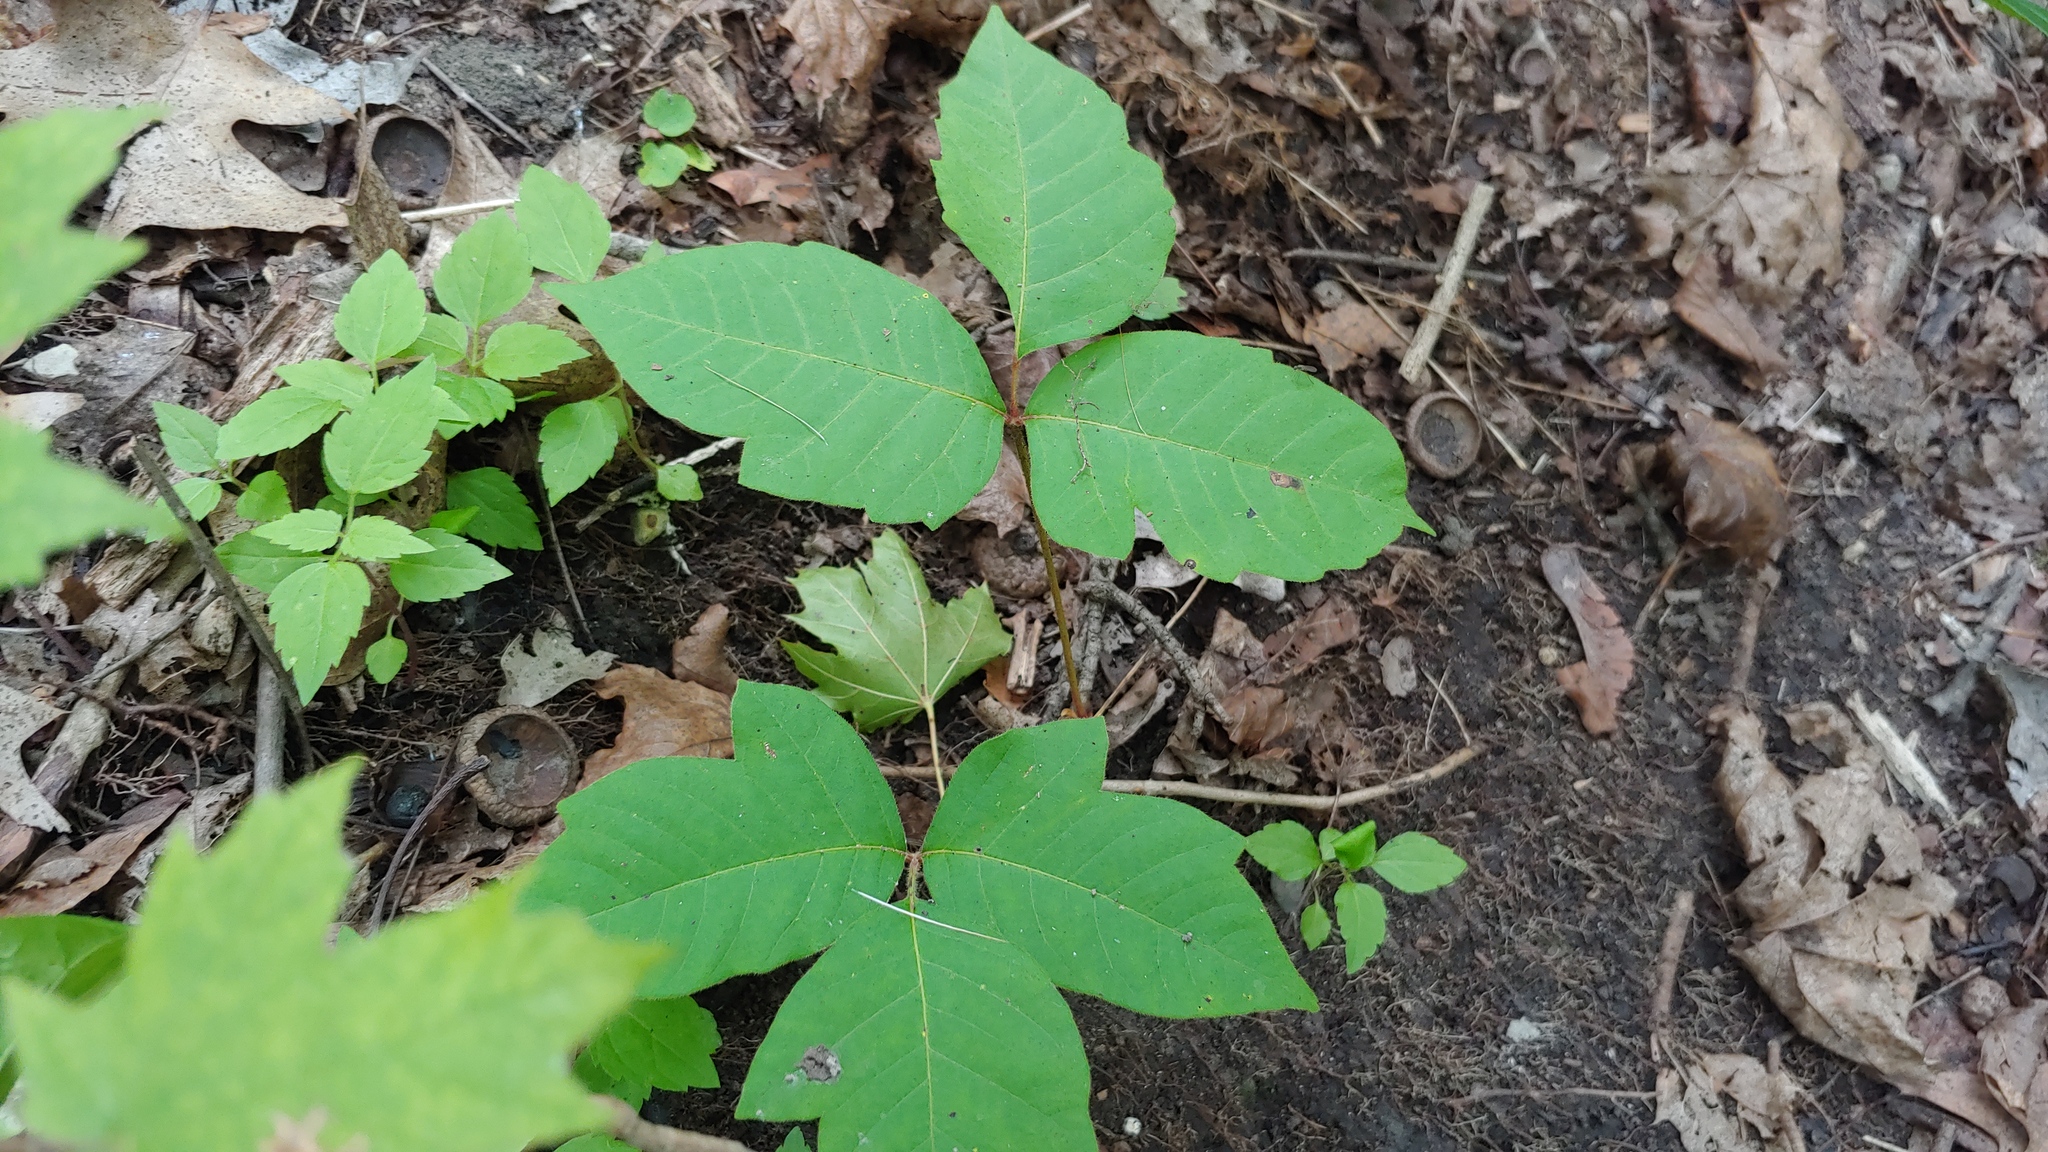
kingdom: Plantae
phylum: Tracheophyta
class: Magnoliopsida
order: Sapindales
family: Anacardiaceae
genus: Toxicodendron
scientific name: Toxicodendron radicans
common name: Poison ivy
